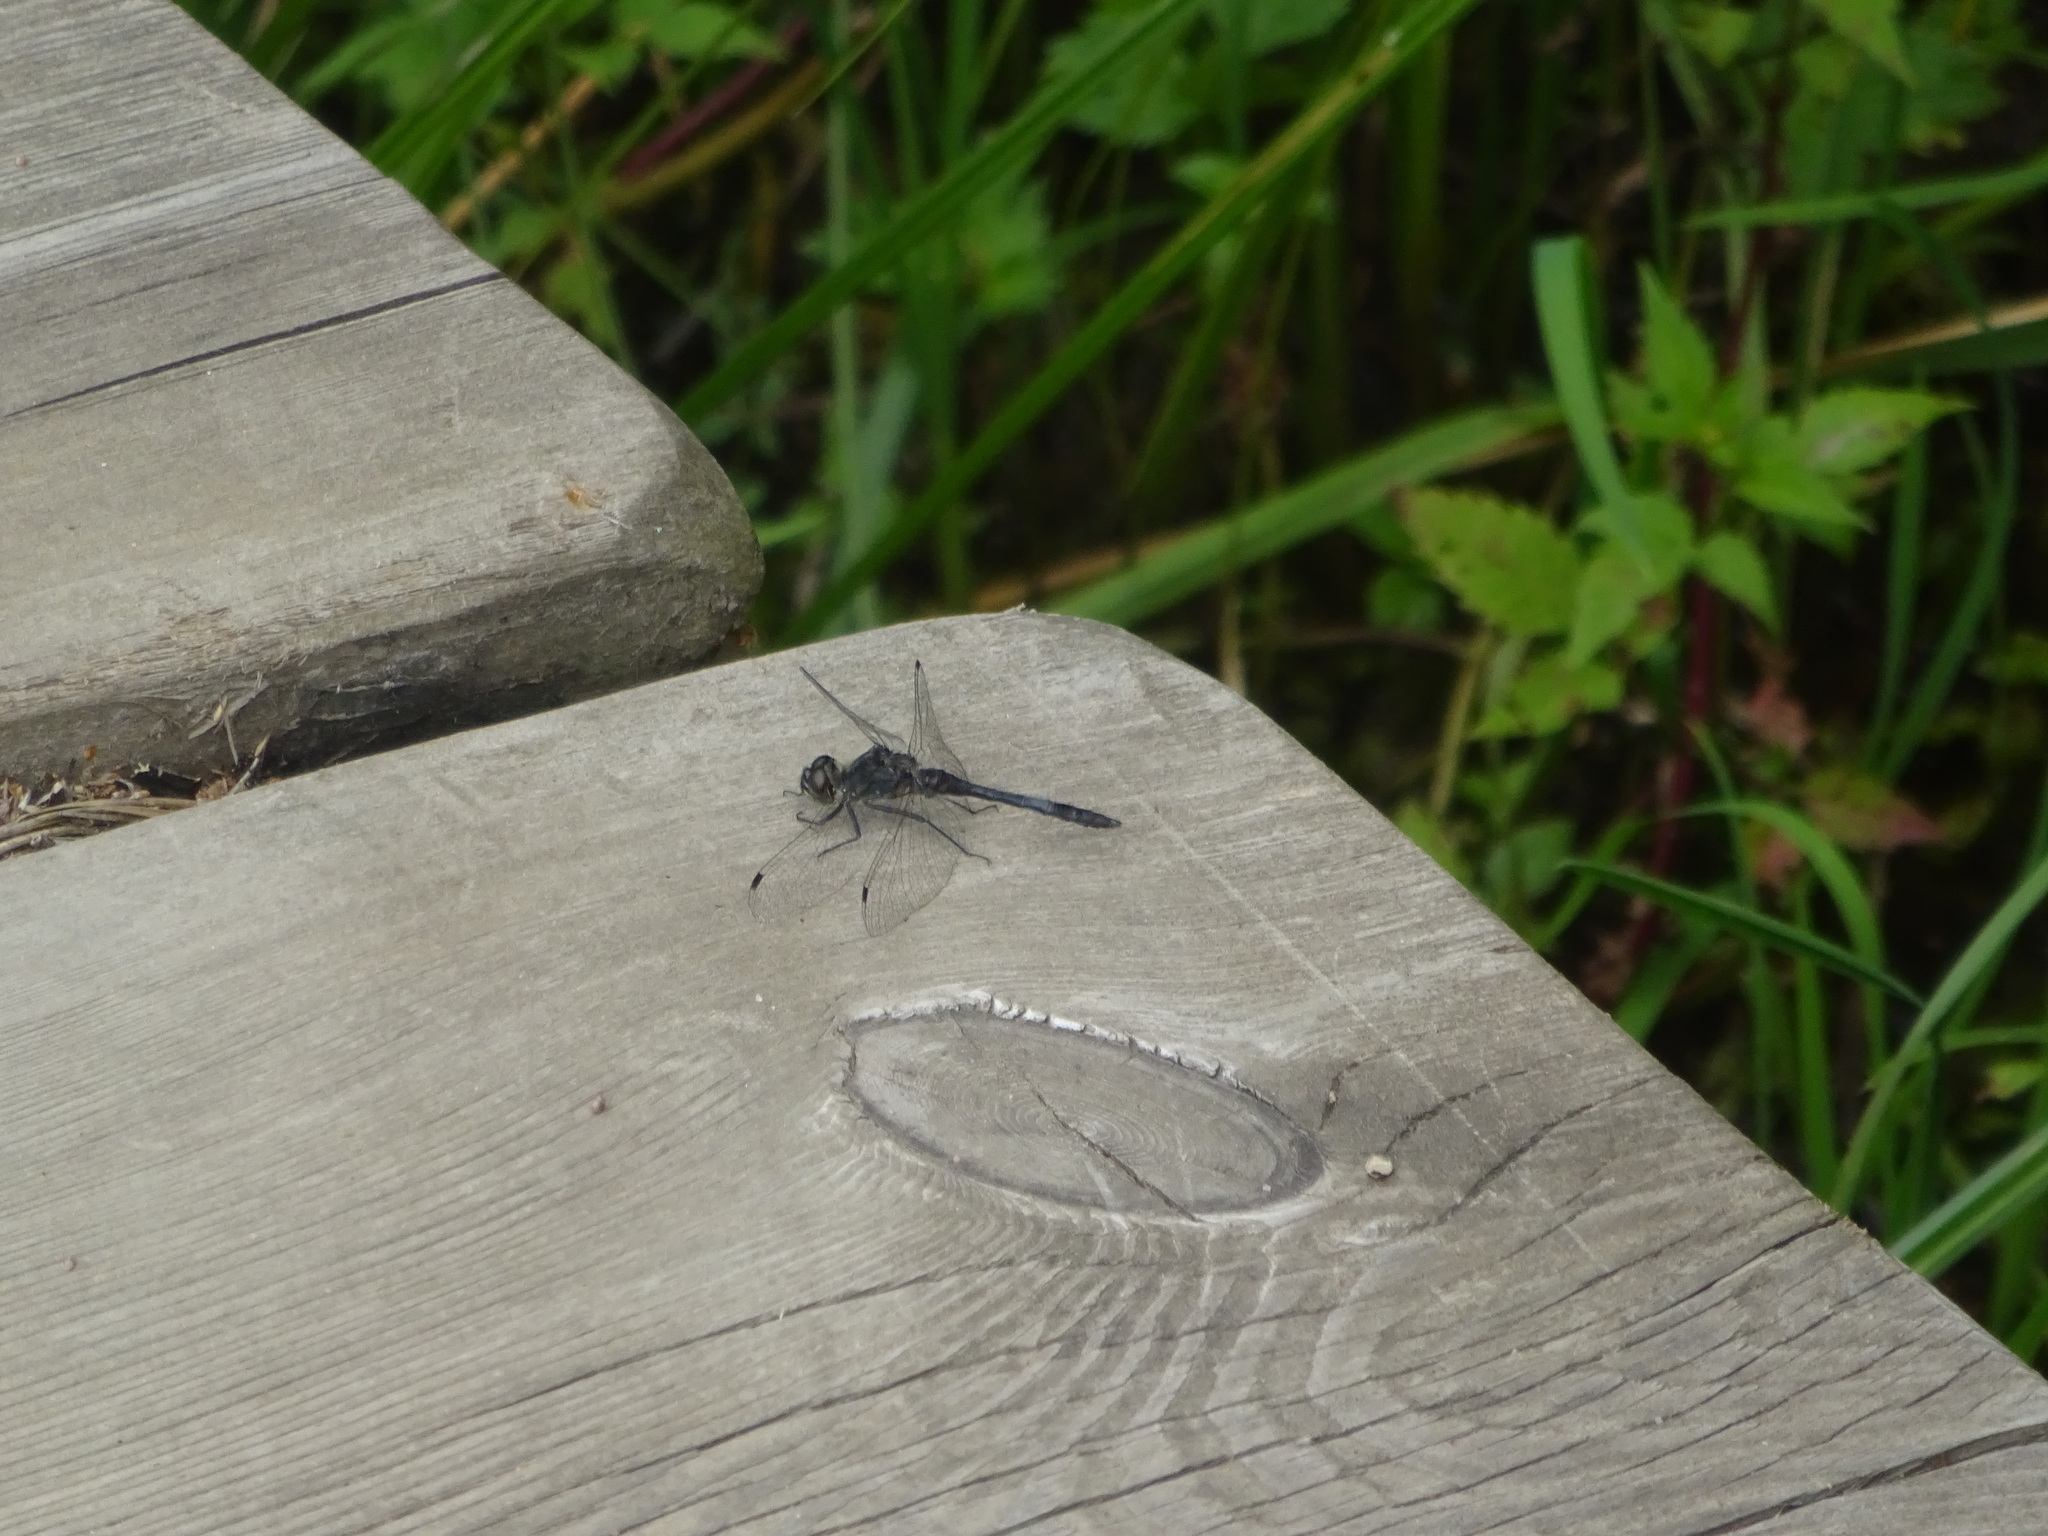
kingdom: Animalia
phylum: Arthropoda
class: Insecta
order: Odonata
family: Libellulidae
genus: Sympetrum
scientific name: Sympetrum danae
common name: Black darter
